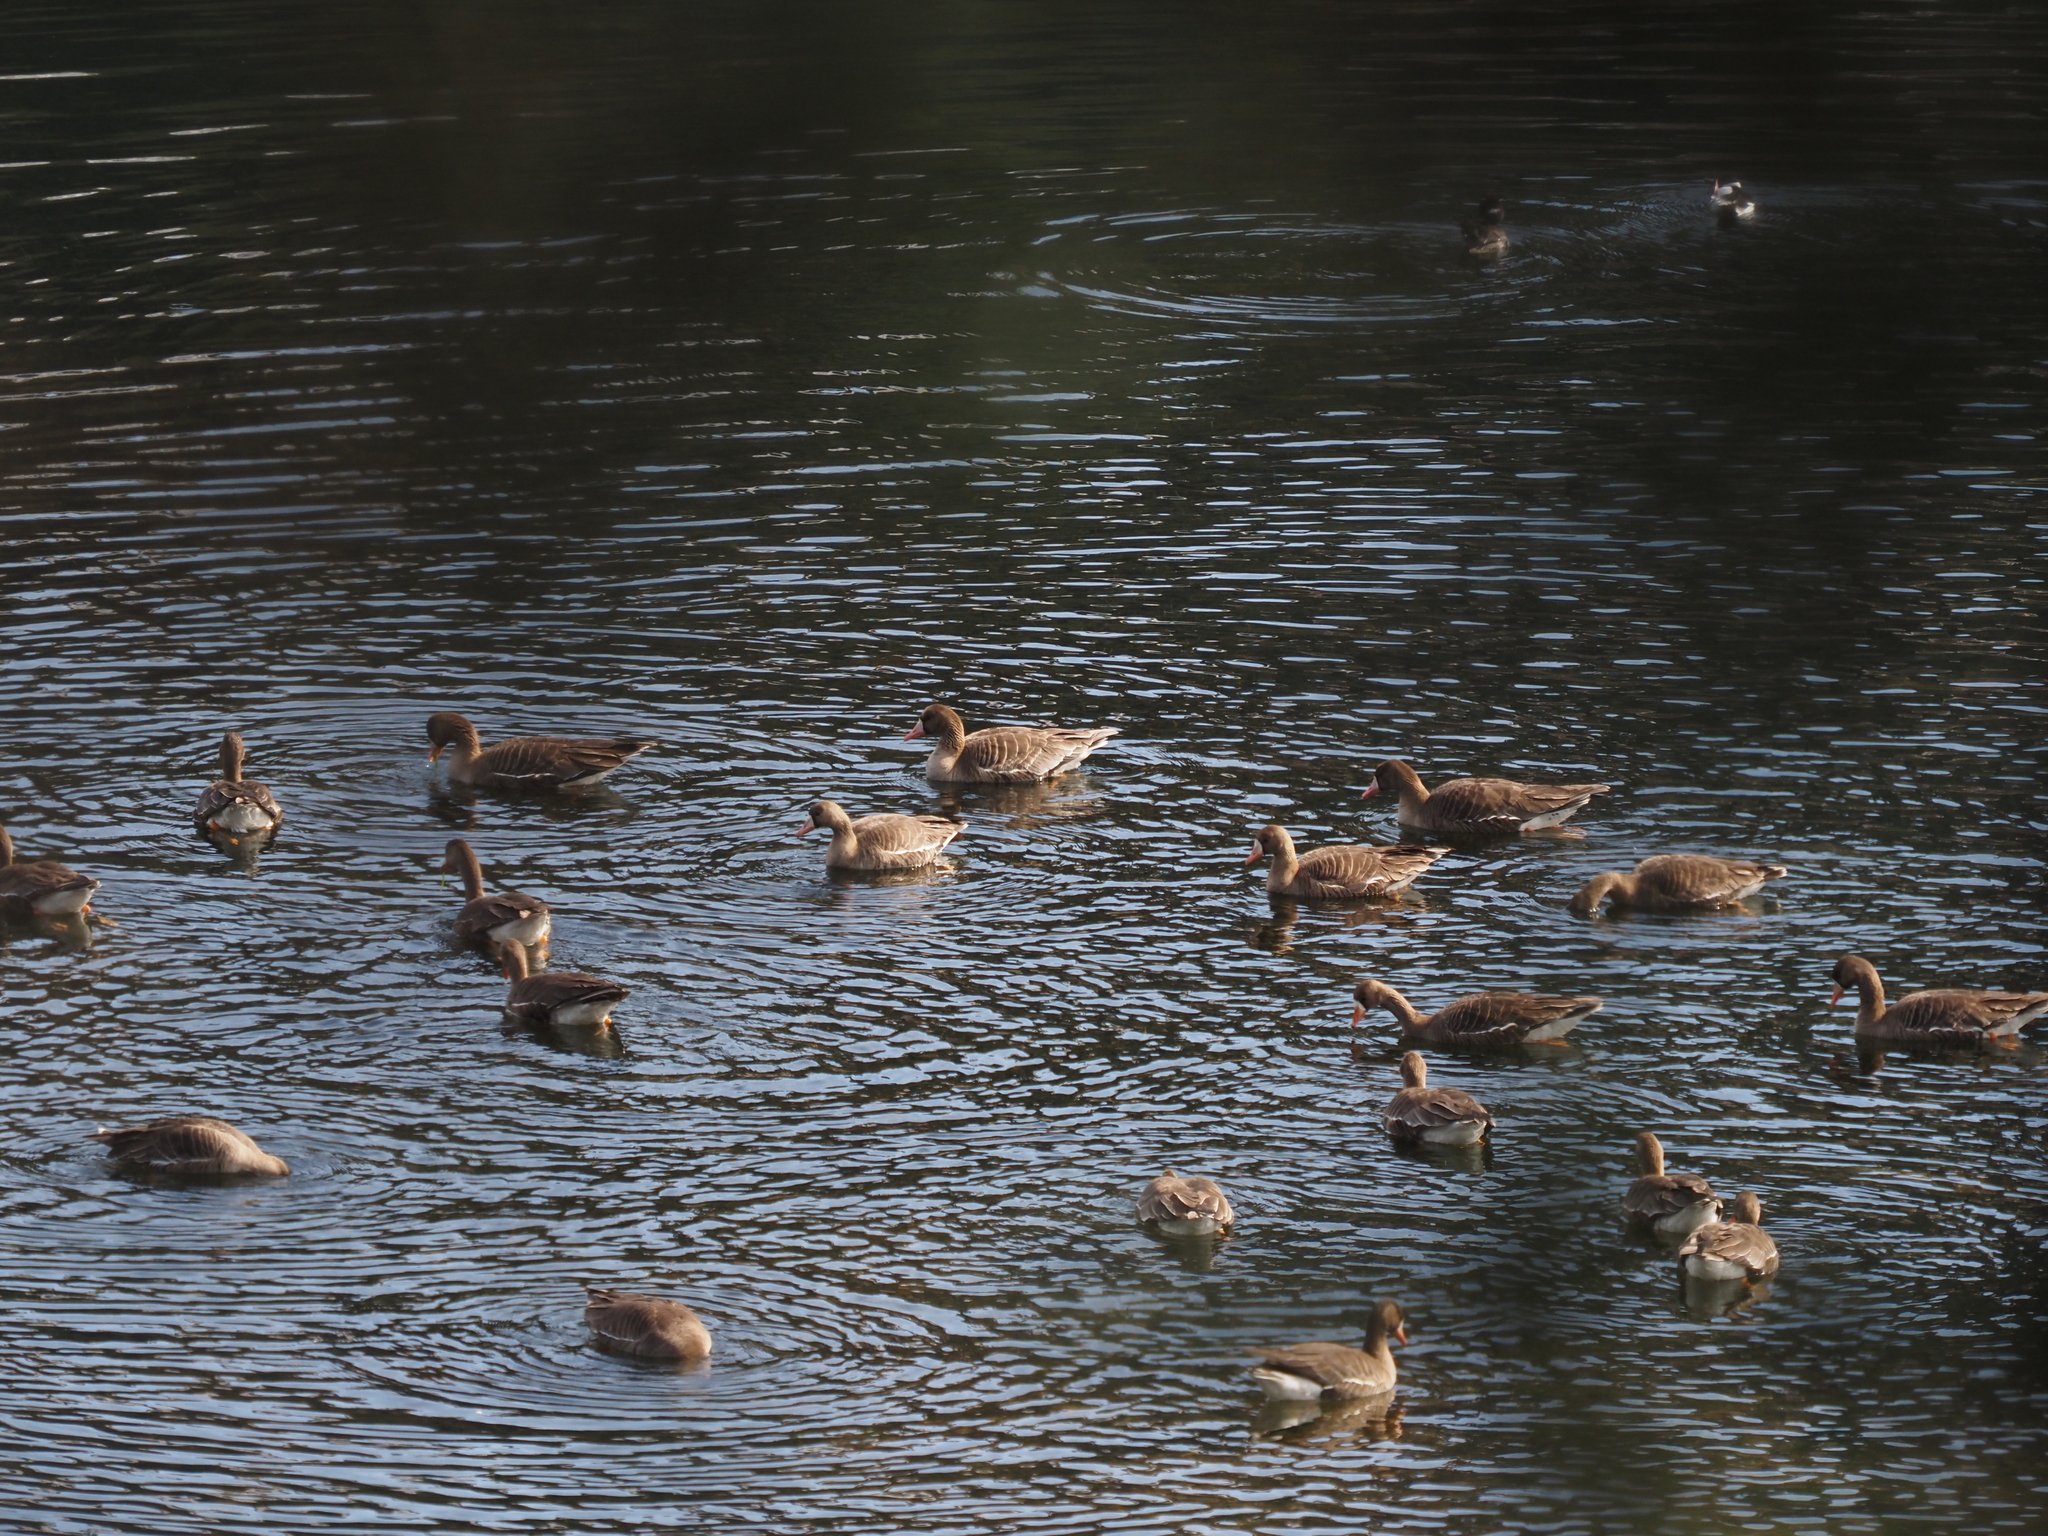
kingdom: Animalia
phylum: Chordata
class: Aves
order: Anseriformes
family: Anatidae
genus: Anser
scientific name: Anser albifrons
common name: Greater white-fronted goose
